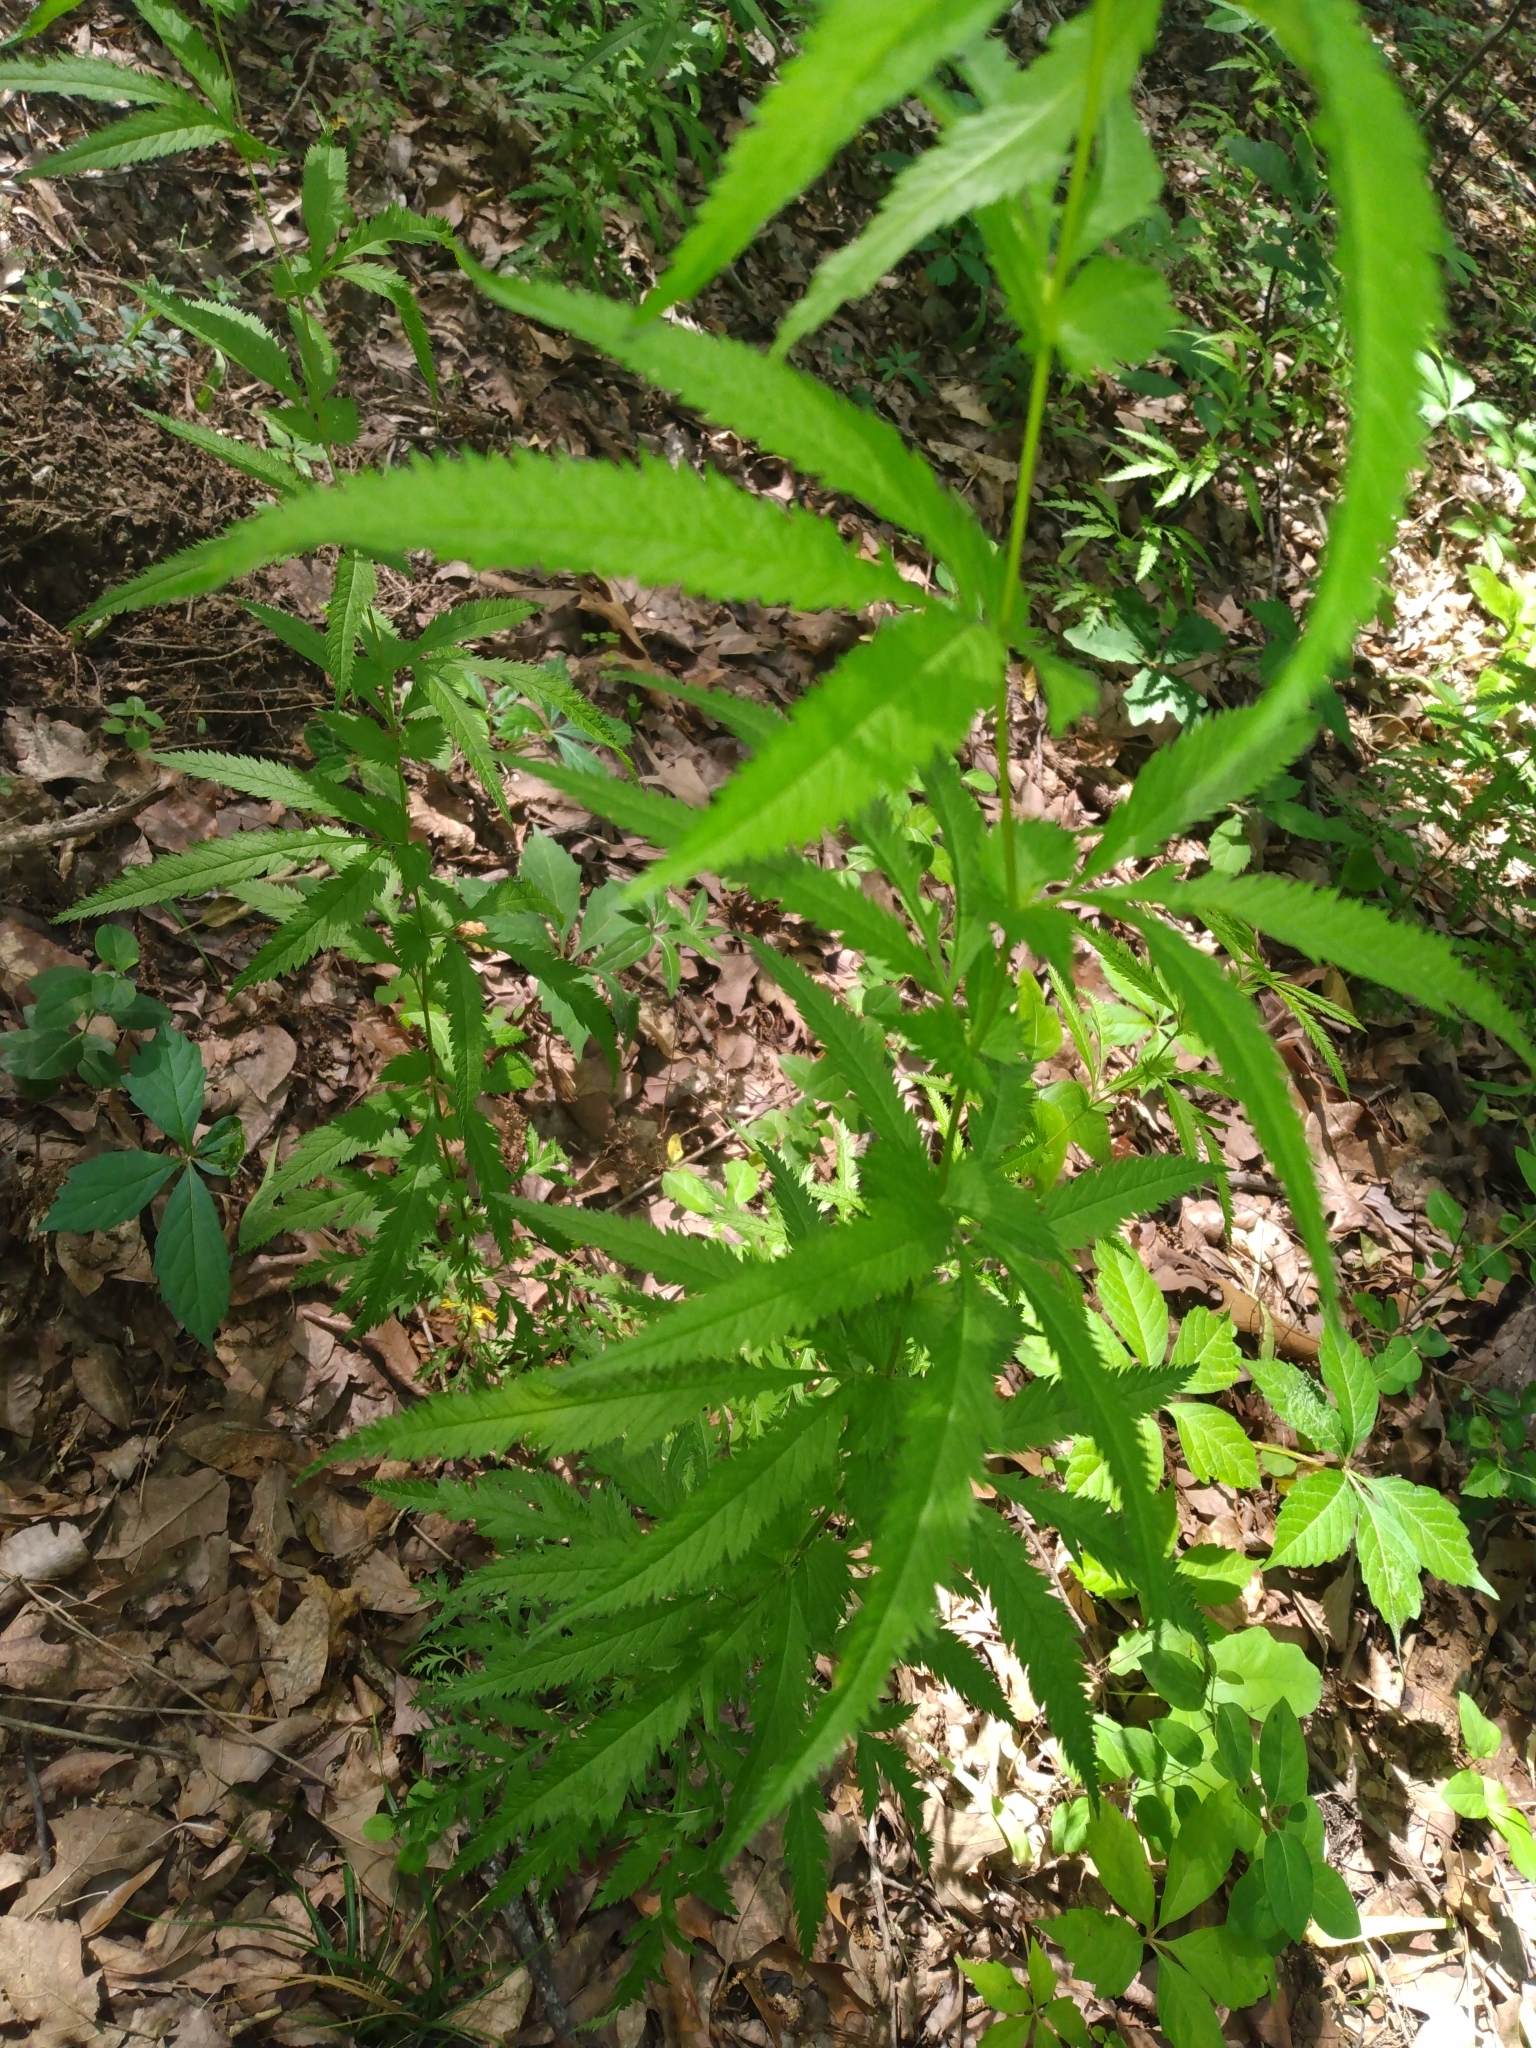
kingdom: Plantae
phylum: Tracheophyta
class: Magnoliopsida
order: Rosales
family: Rosaceae
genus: Gillenia
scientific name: Gillenia stipulata
